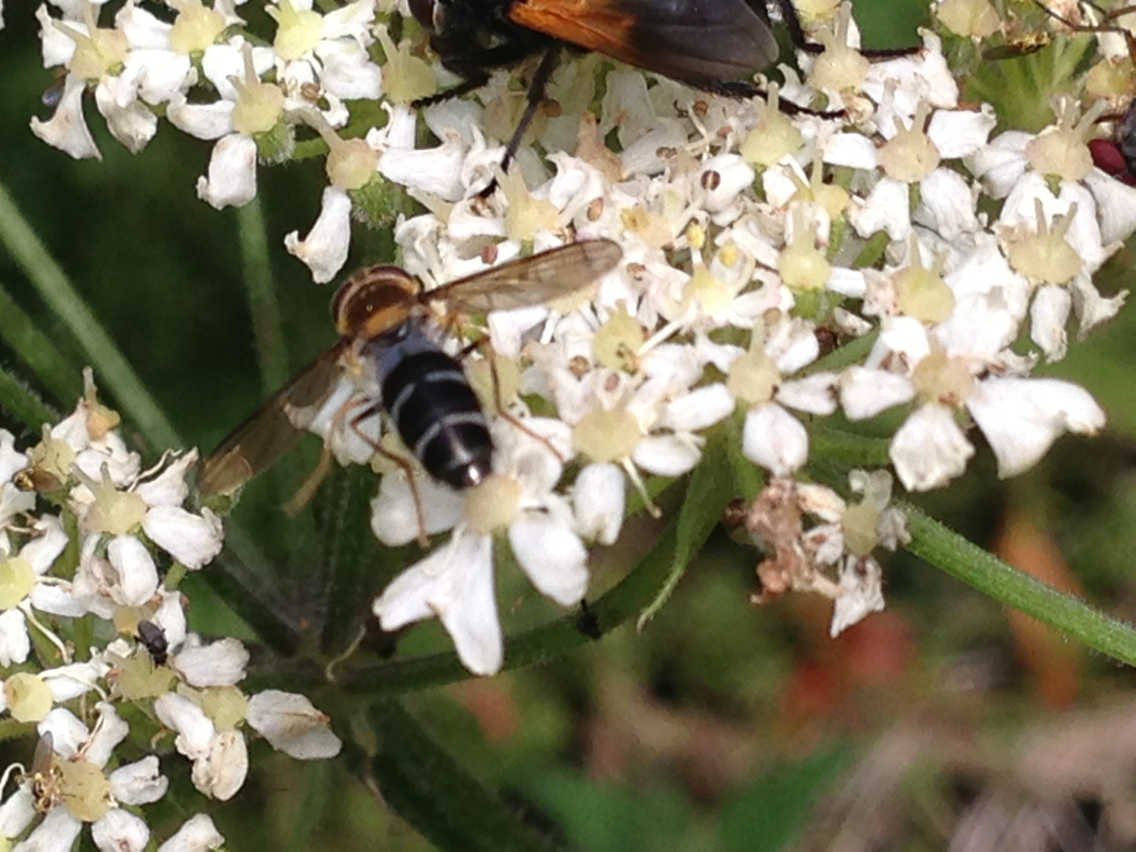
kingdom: Animalia
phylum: Arthropoda
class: Insecta
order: Diptera
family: Syrphidae
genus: Leucozona
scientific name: Leucozona glaucia
